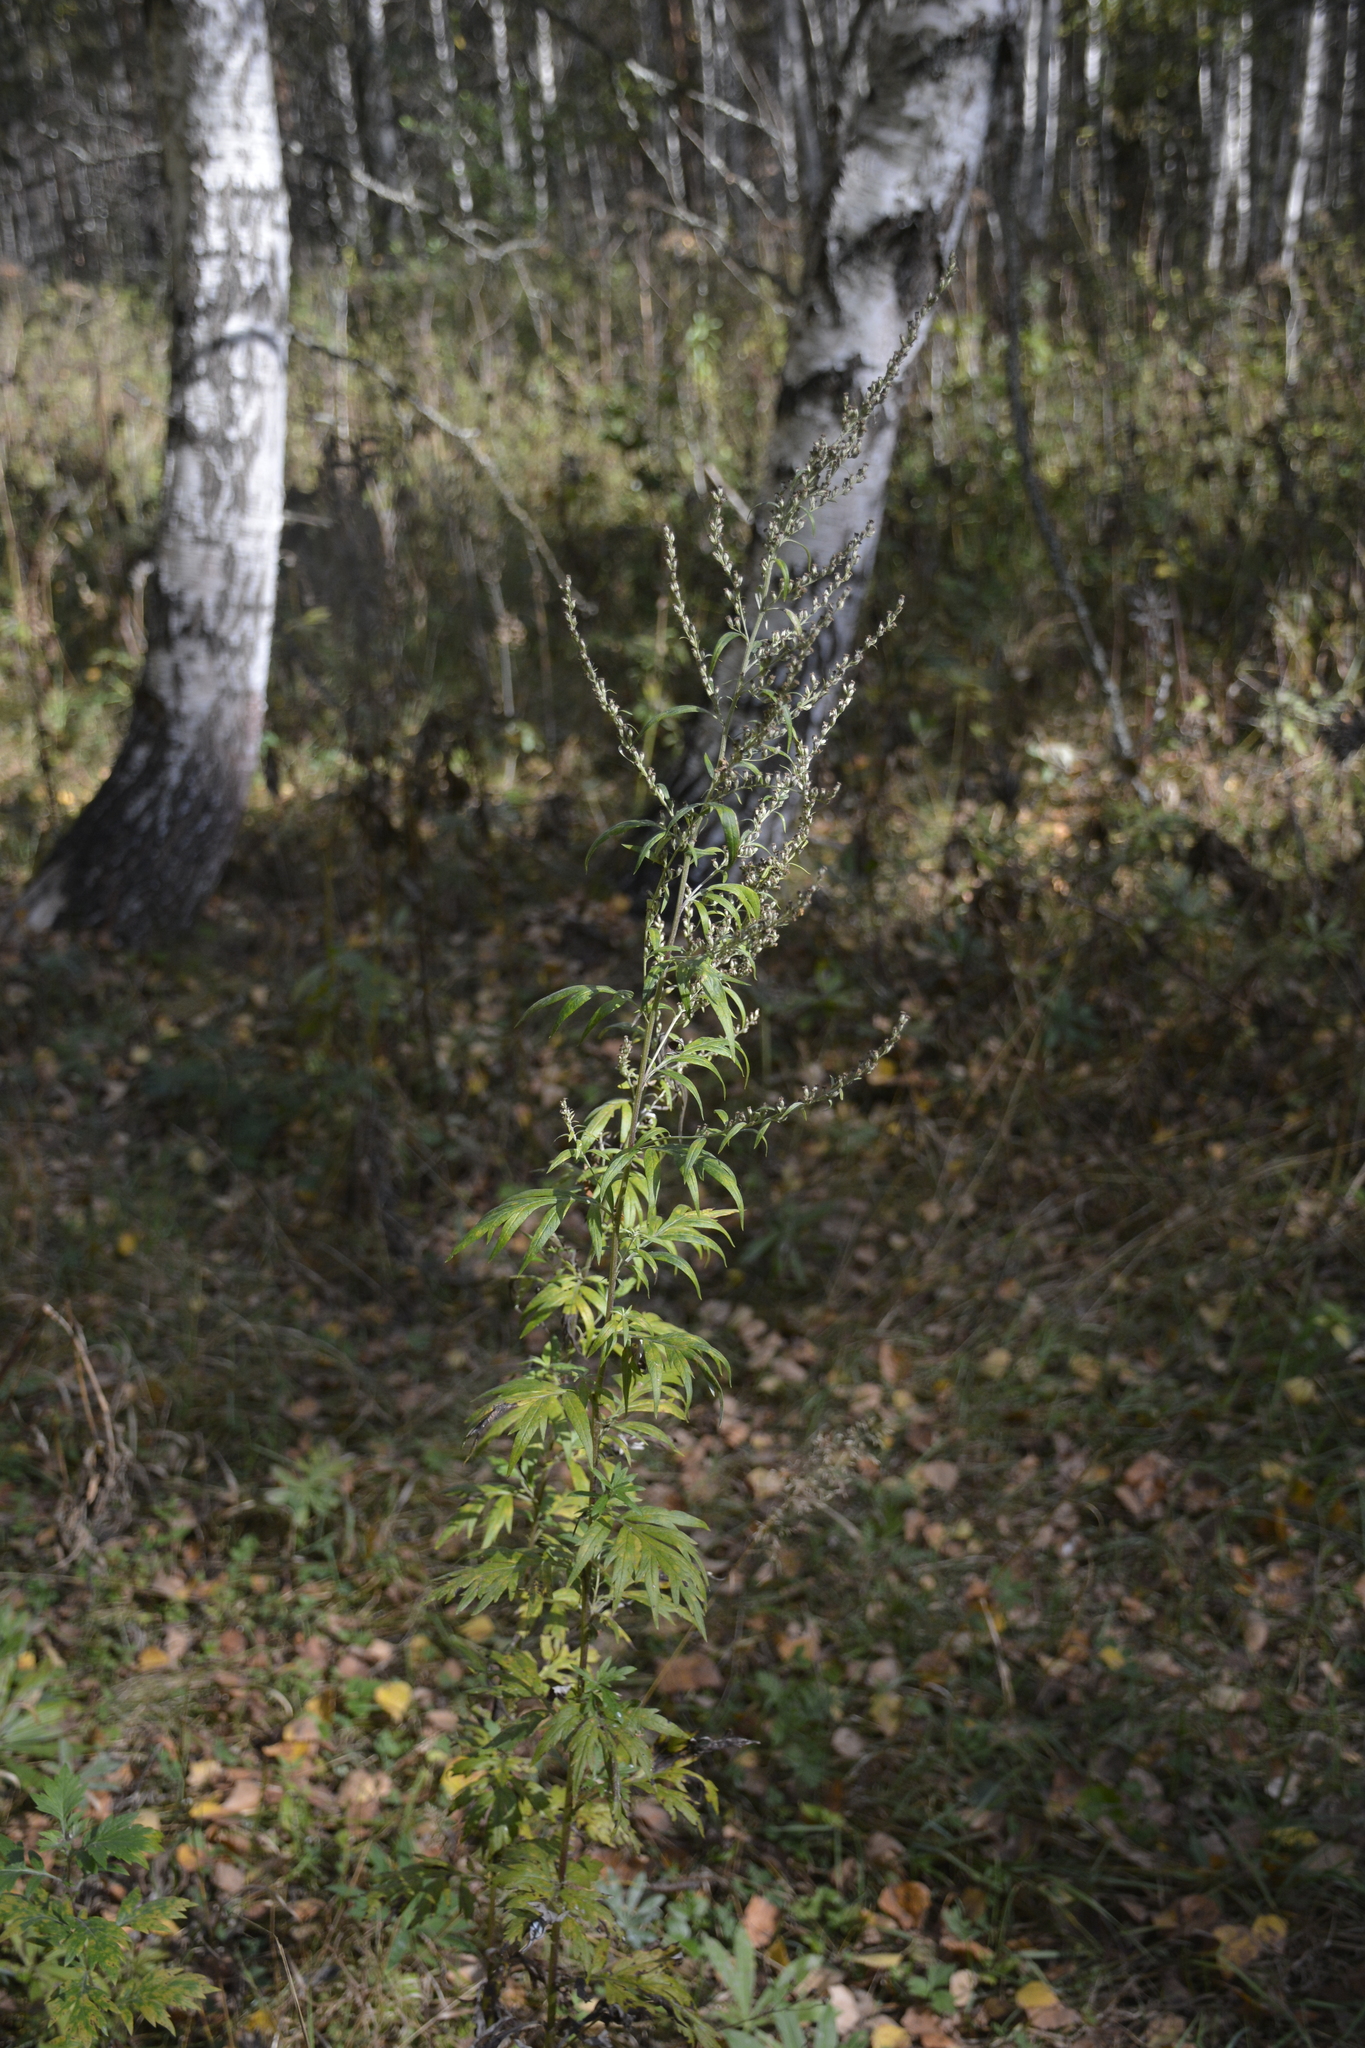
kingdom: Plantae
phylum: Tracheophyta
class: Magnoliopsida
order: Asterales
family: Asteraceae
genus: Artemisia
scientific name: Artemisia vulgaris
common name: Mugwort
